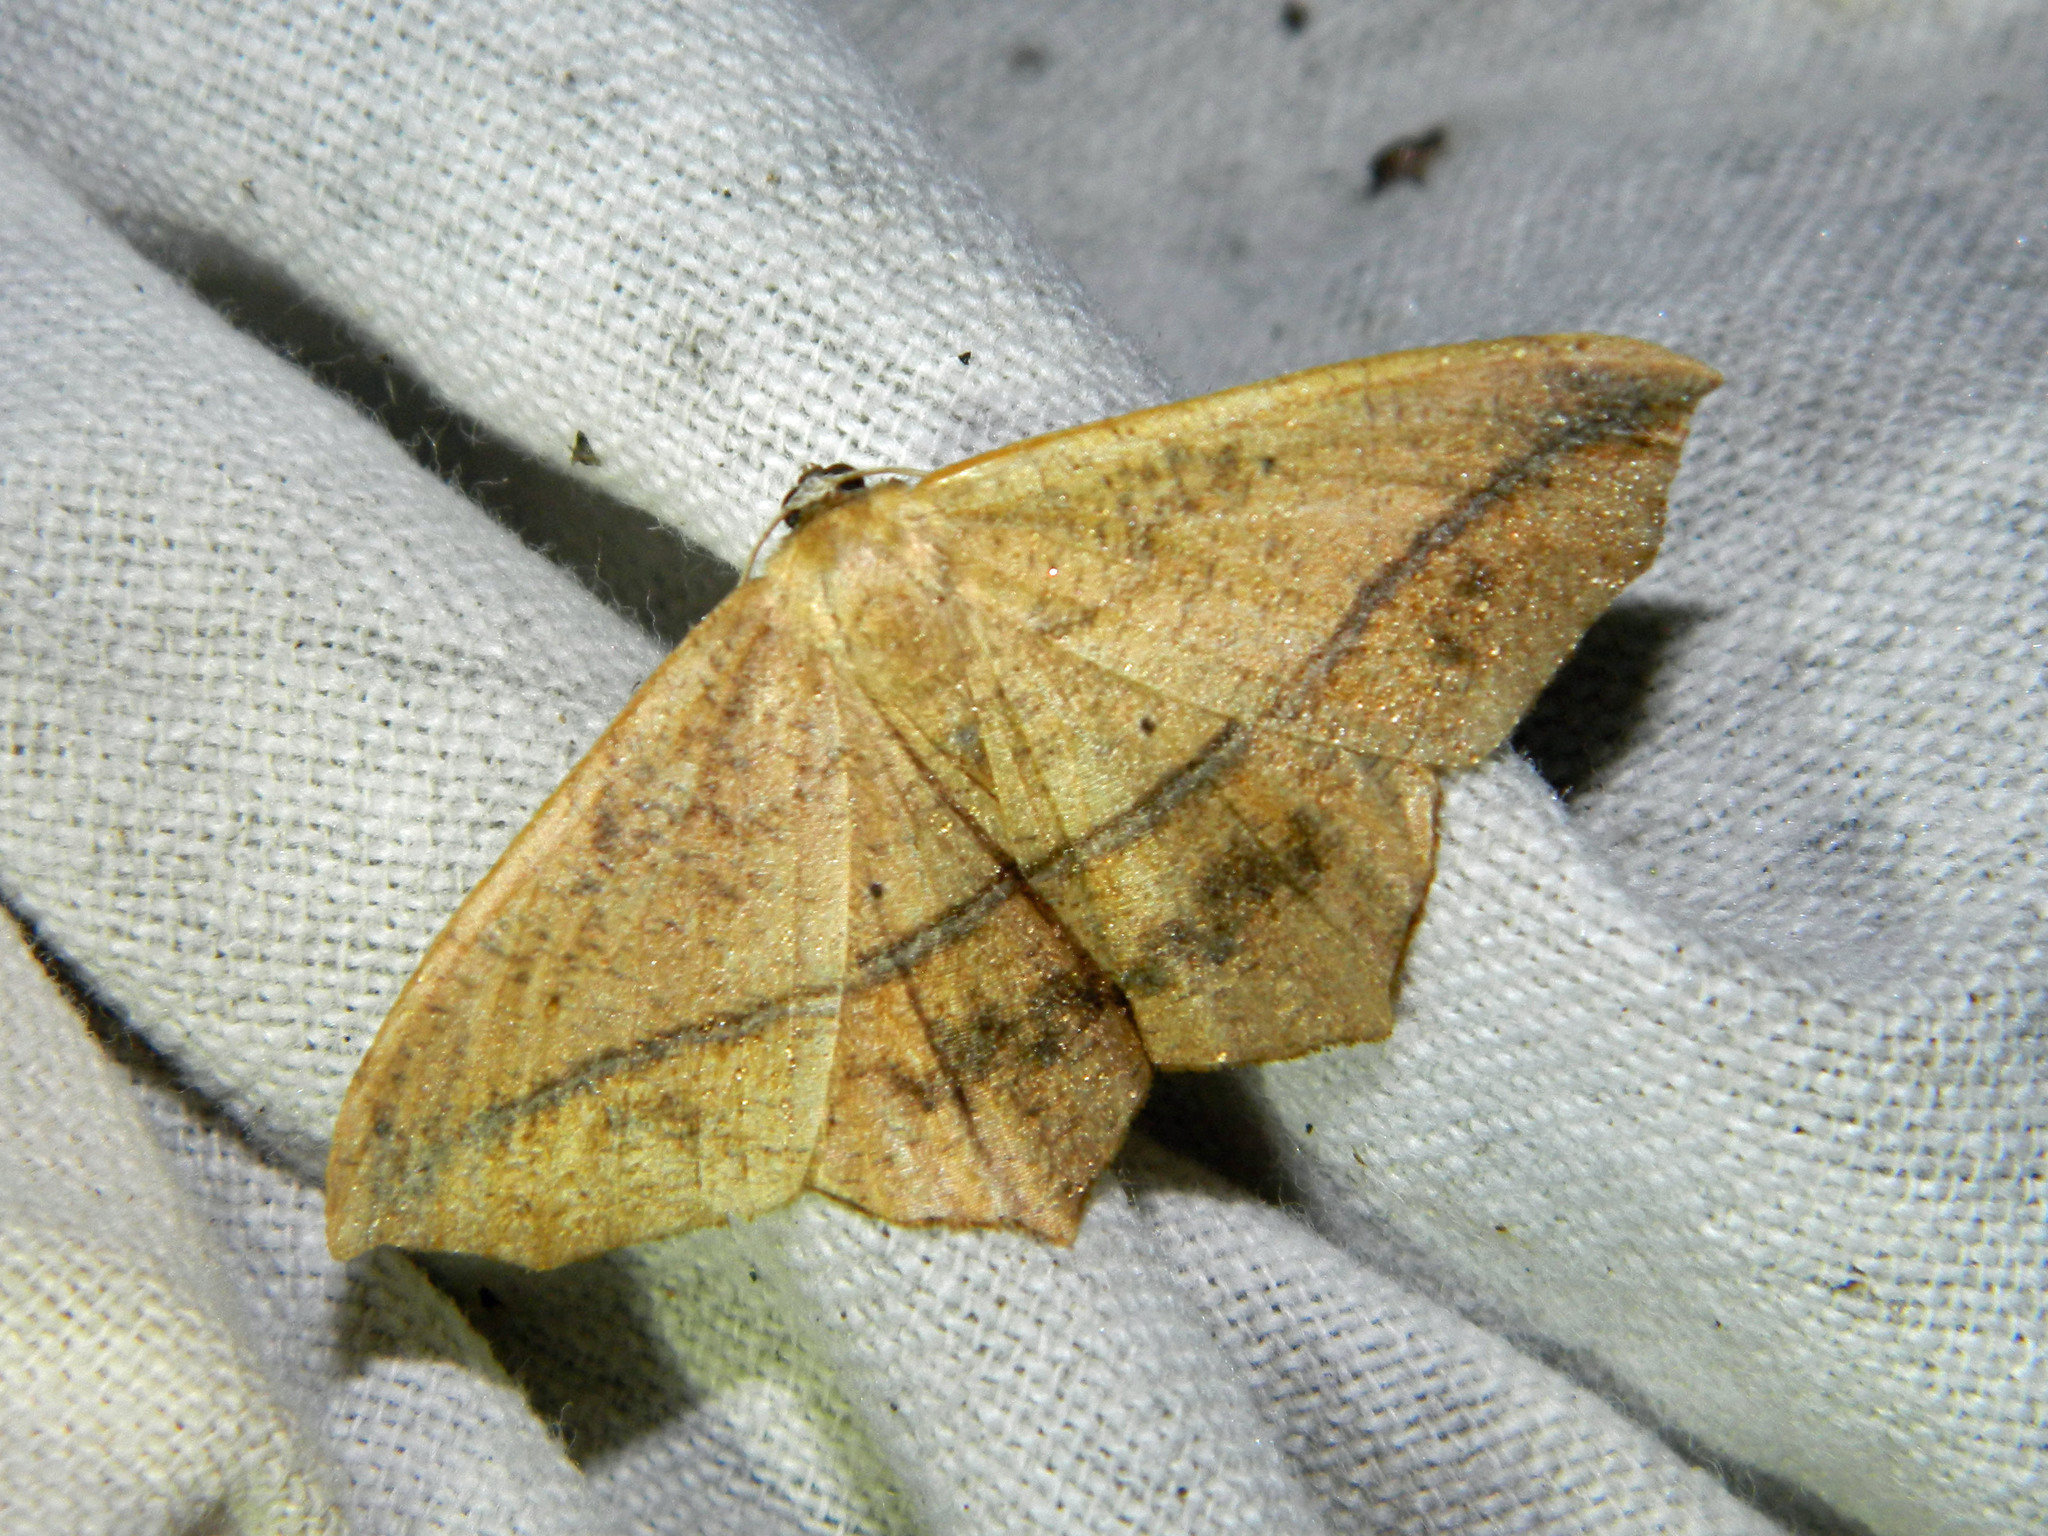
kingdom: Animalia
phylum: Arthropoda
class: Insecta
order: Lepidoptera
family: Geometridae
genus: Prochoerodes
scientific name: Prochoerodes lineola
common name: Large maple spanworm
